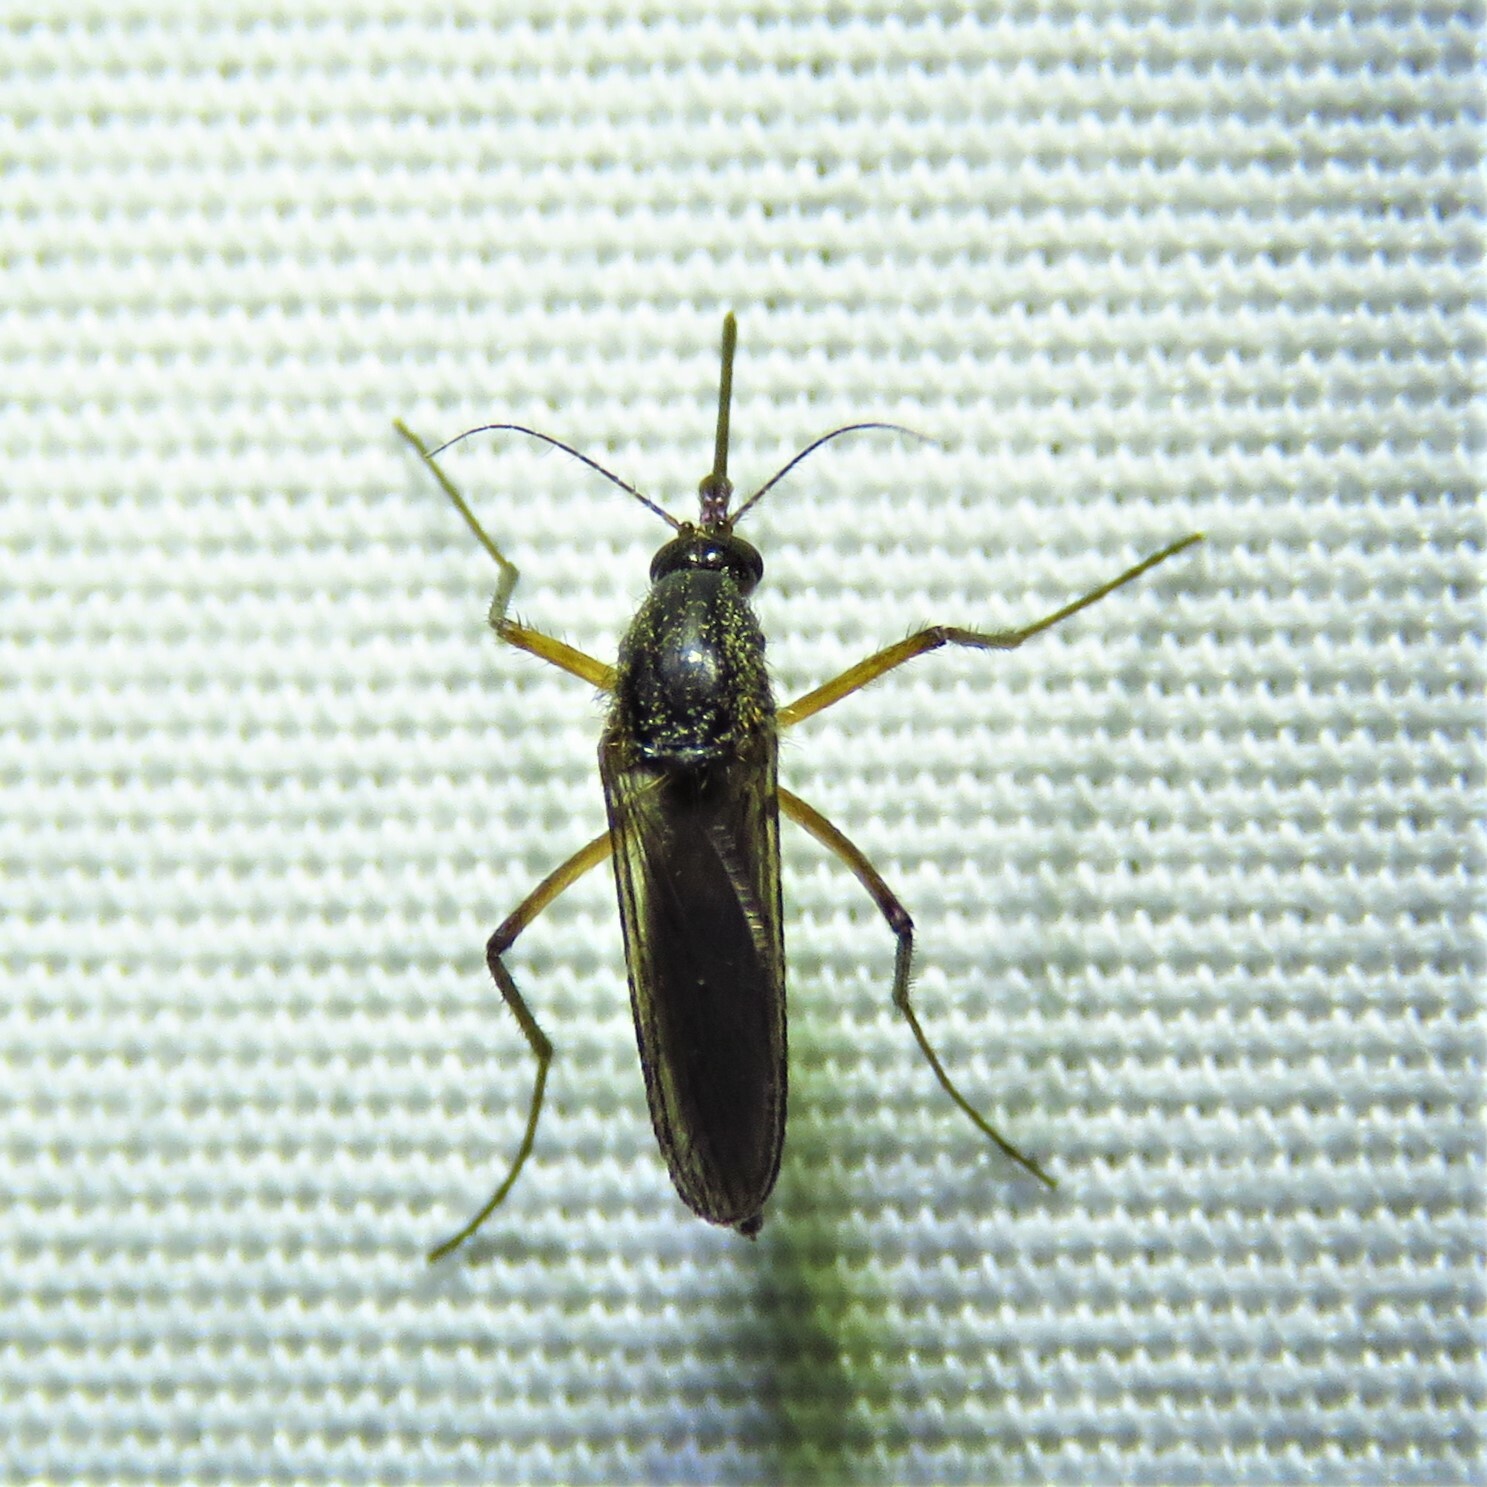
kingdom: Animalia
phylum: Arthropoda
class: Insecta
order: Diptera
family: Culicidae
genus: Psorophora
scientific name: Psorophora cyanescens
